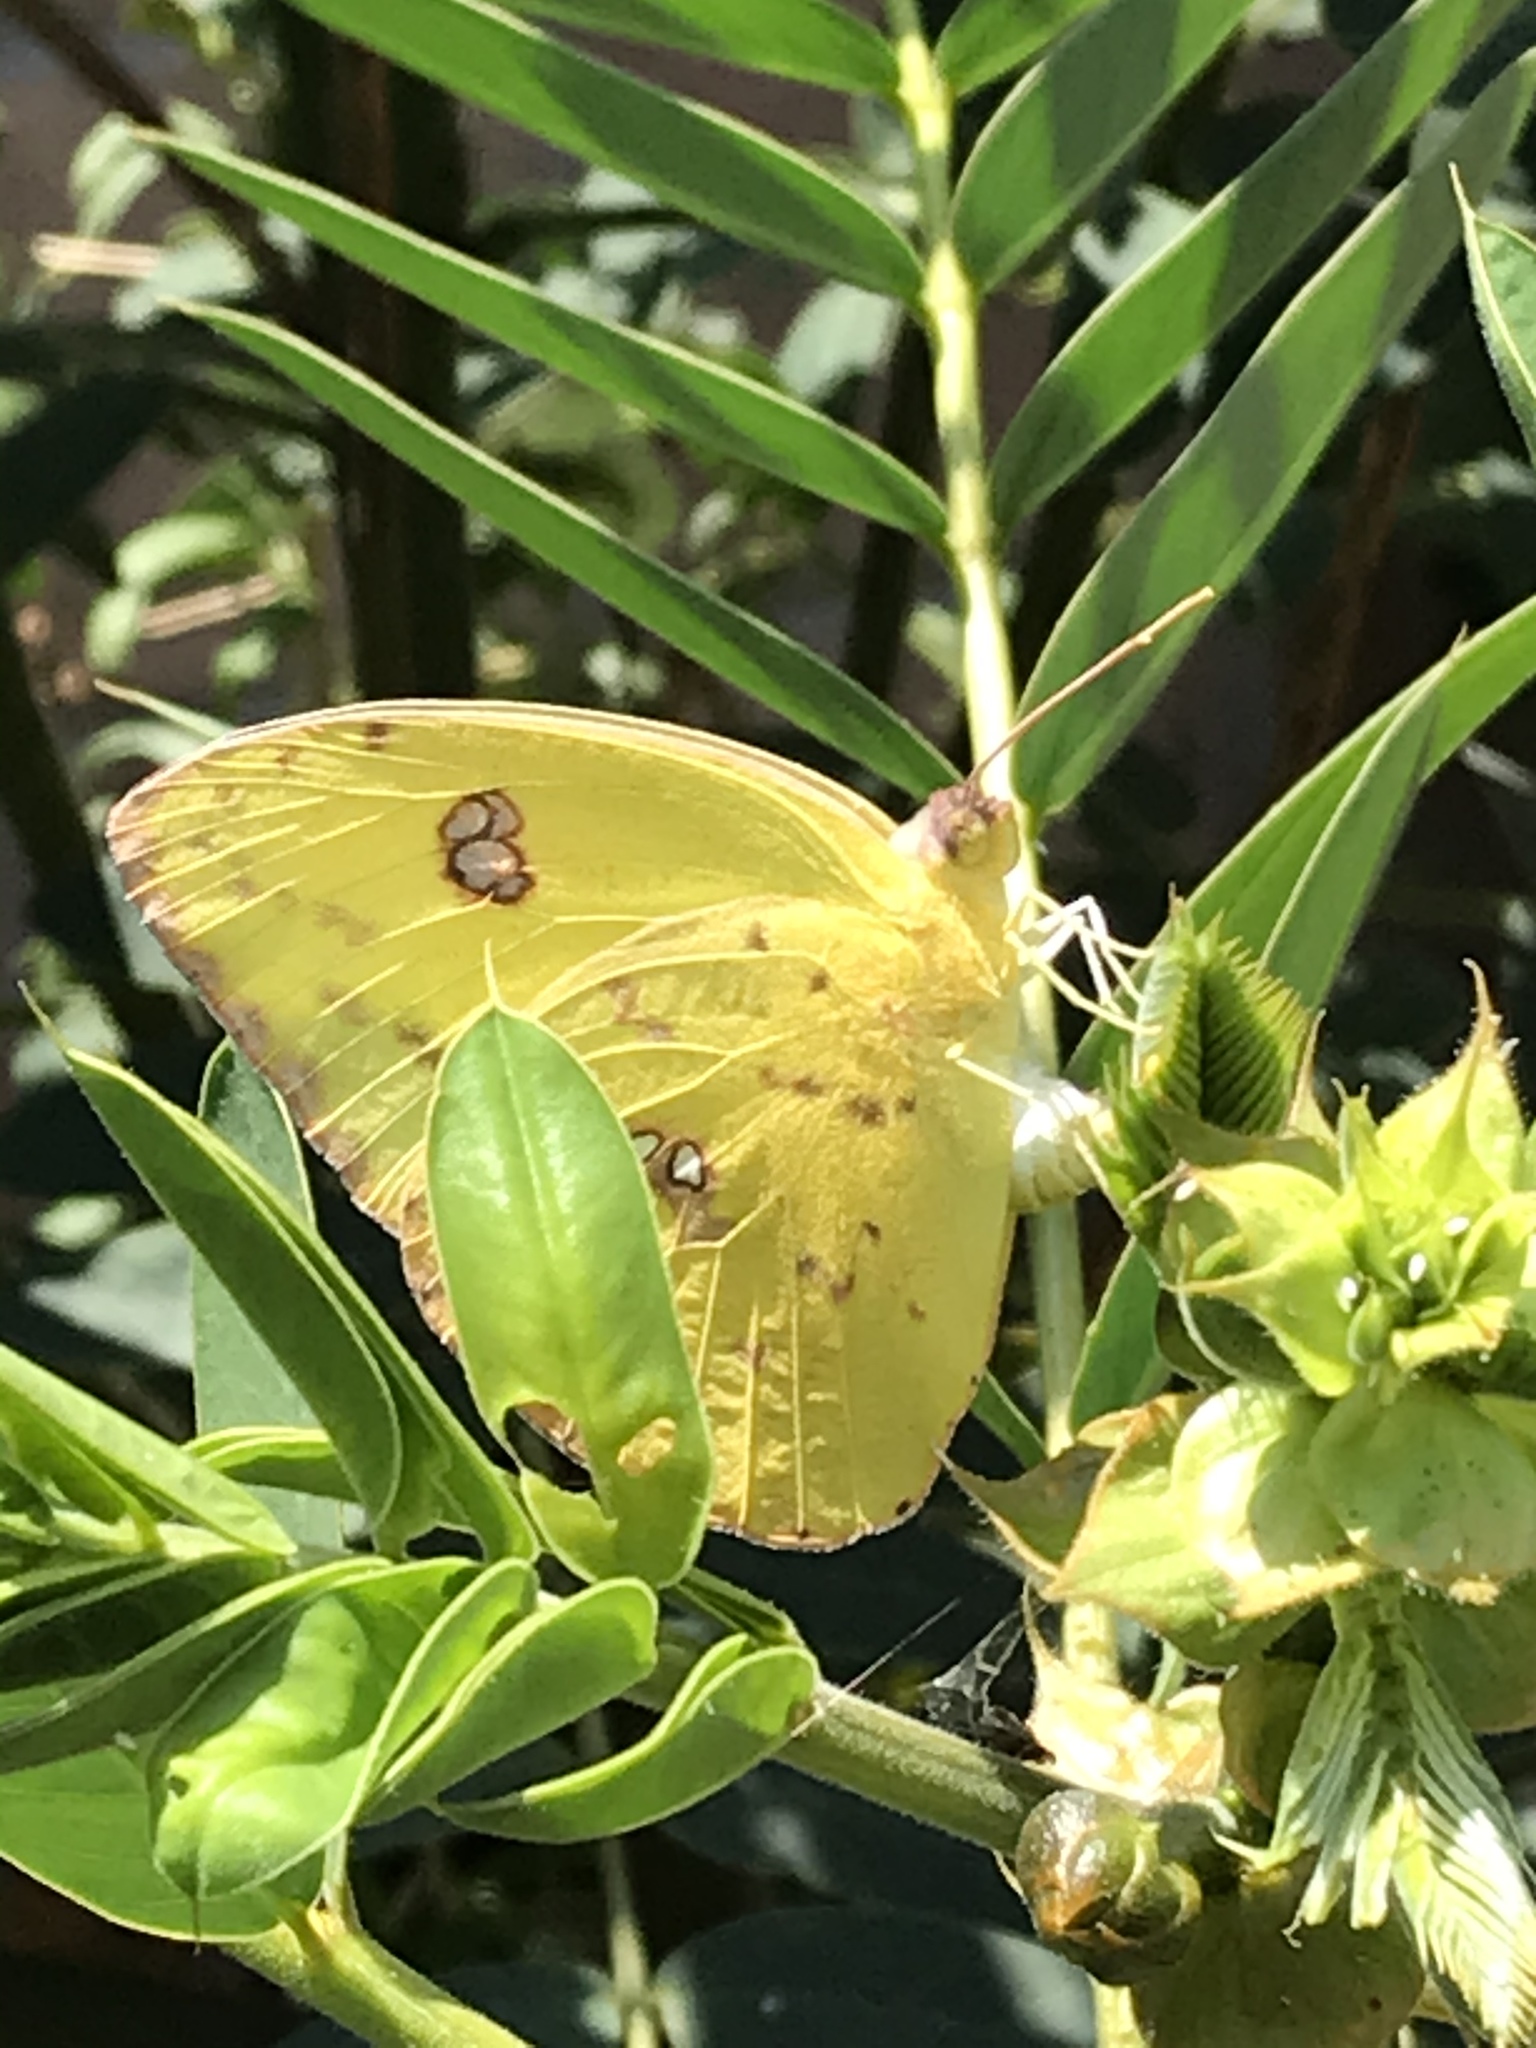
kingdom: Animalia
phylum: Arthropoda
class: Insecta
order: Lepidoptera
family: Pieridae
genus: Phoebis
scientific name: Phoebis sennae
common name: Cloudless sulphur
